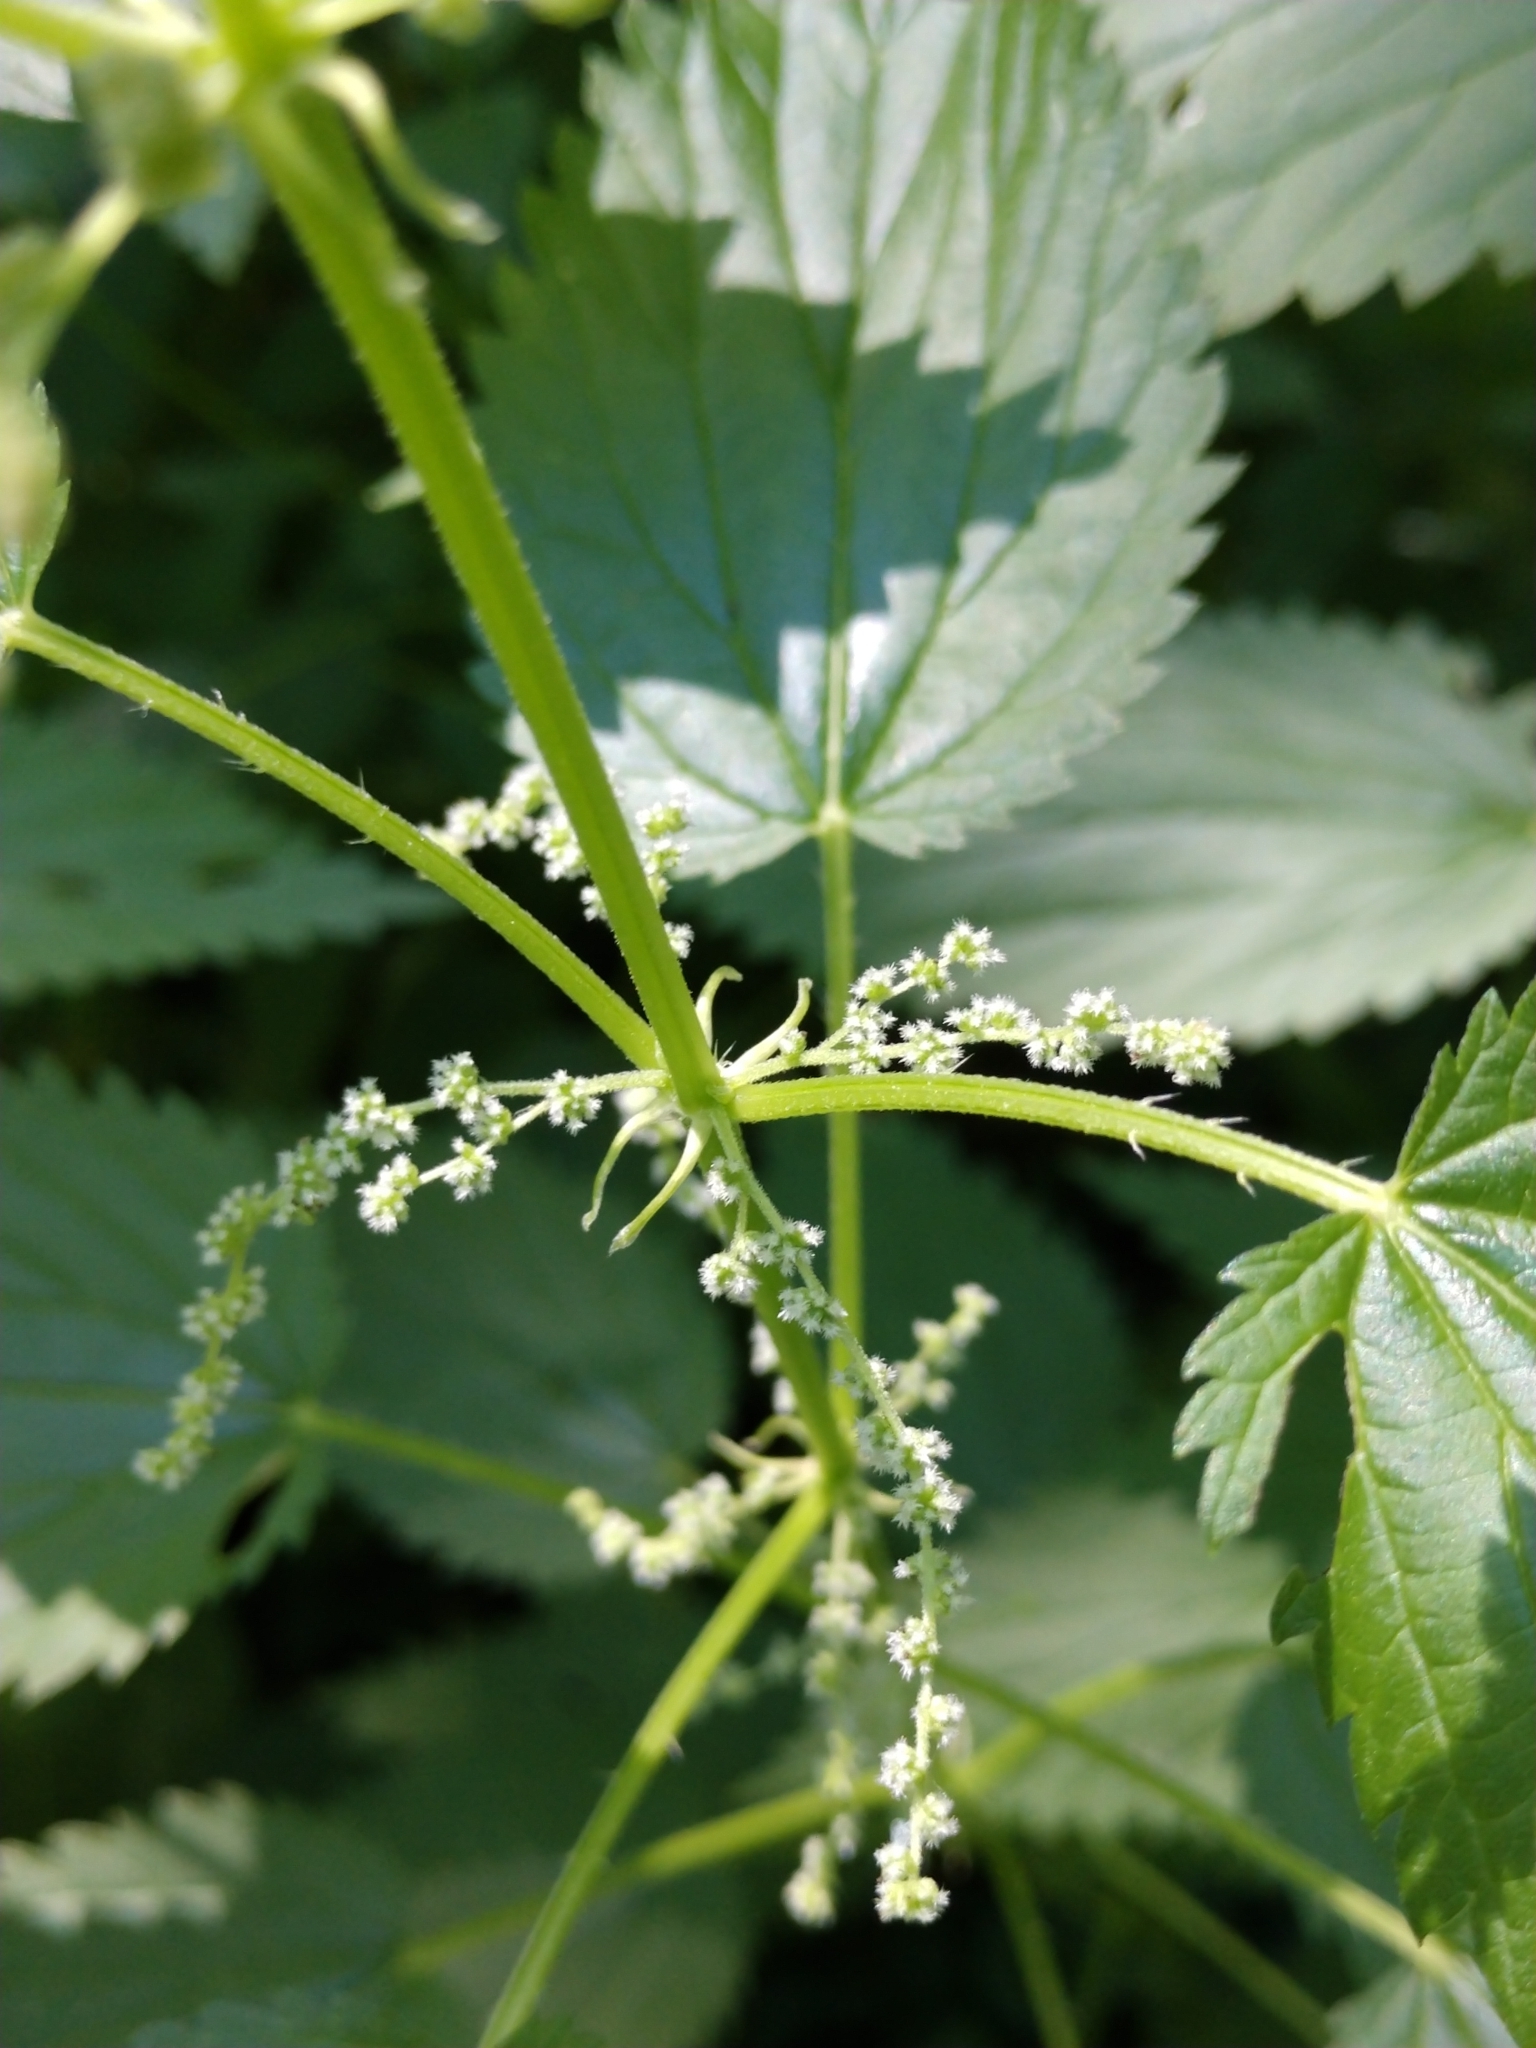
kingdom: Plantae
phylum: Tracheophyta
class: Magnoliopsida
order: Rosales
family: Urticaceae
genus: Urtica
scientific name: Urtica dioica
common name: Common nettle
